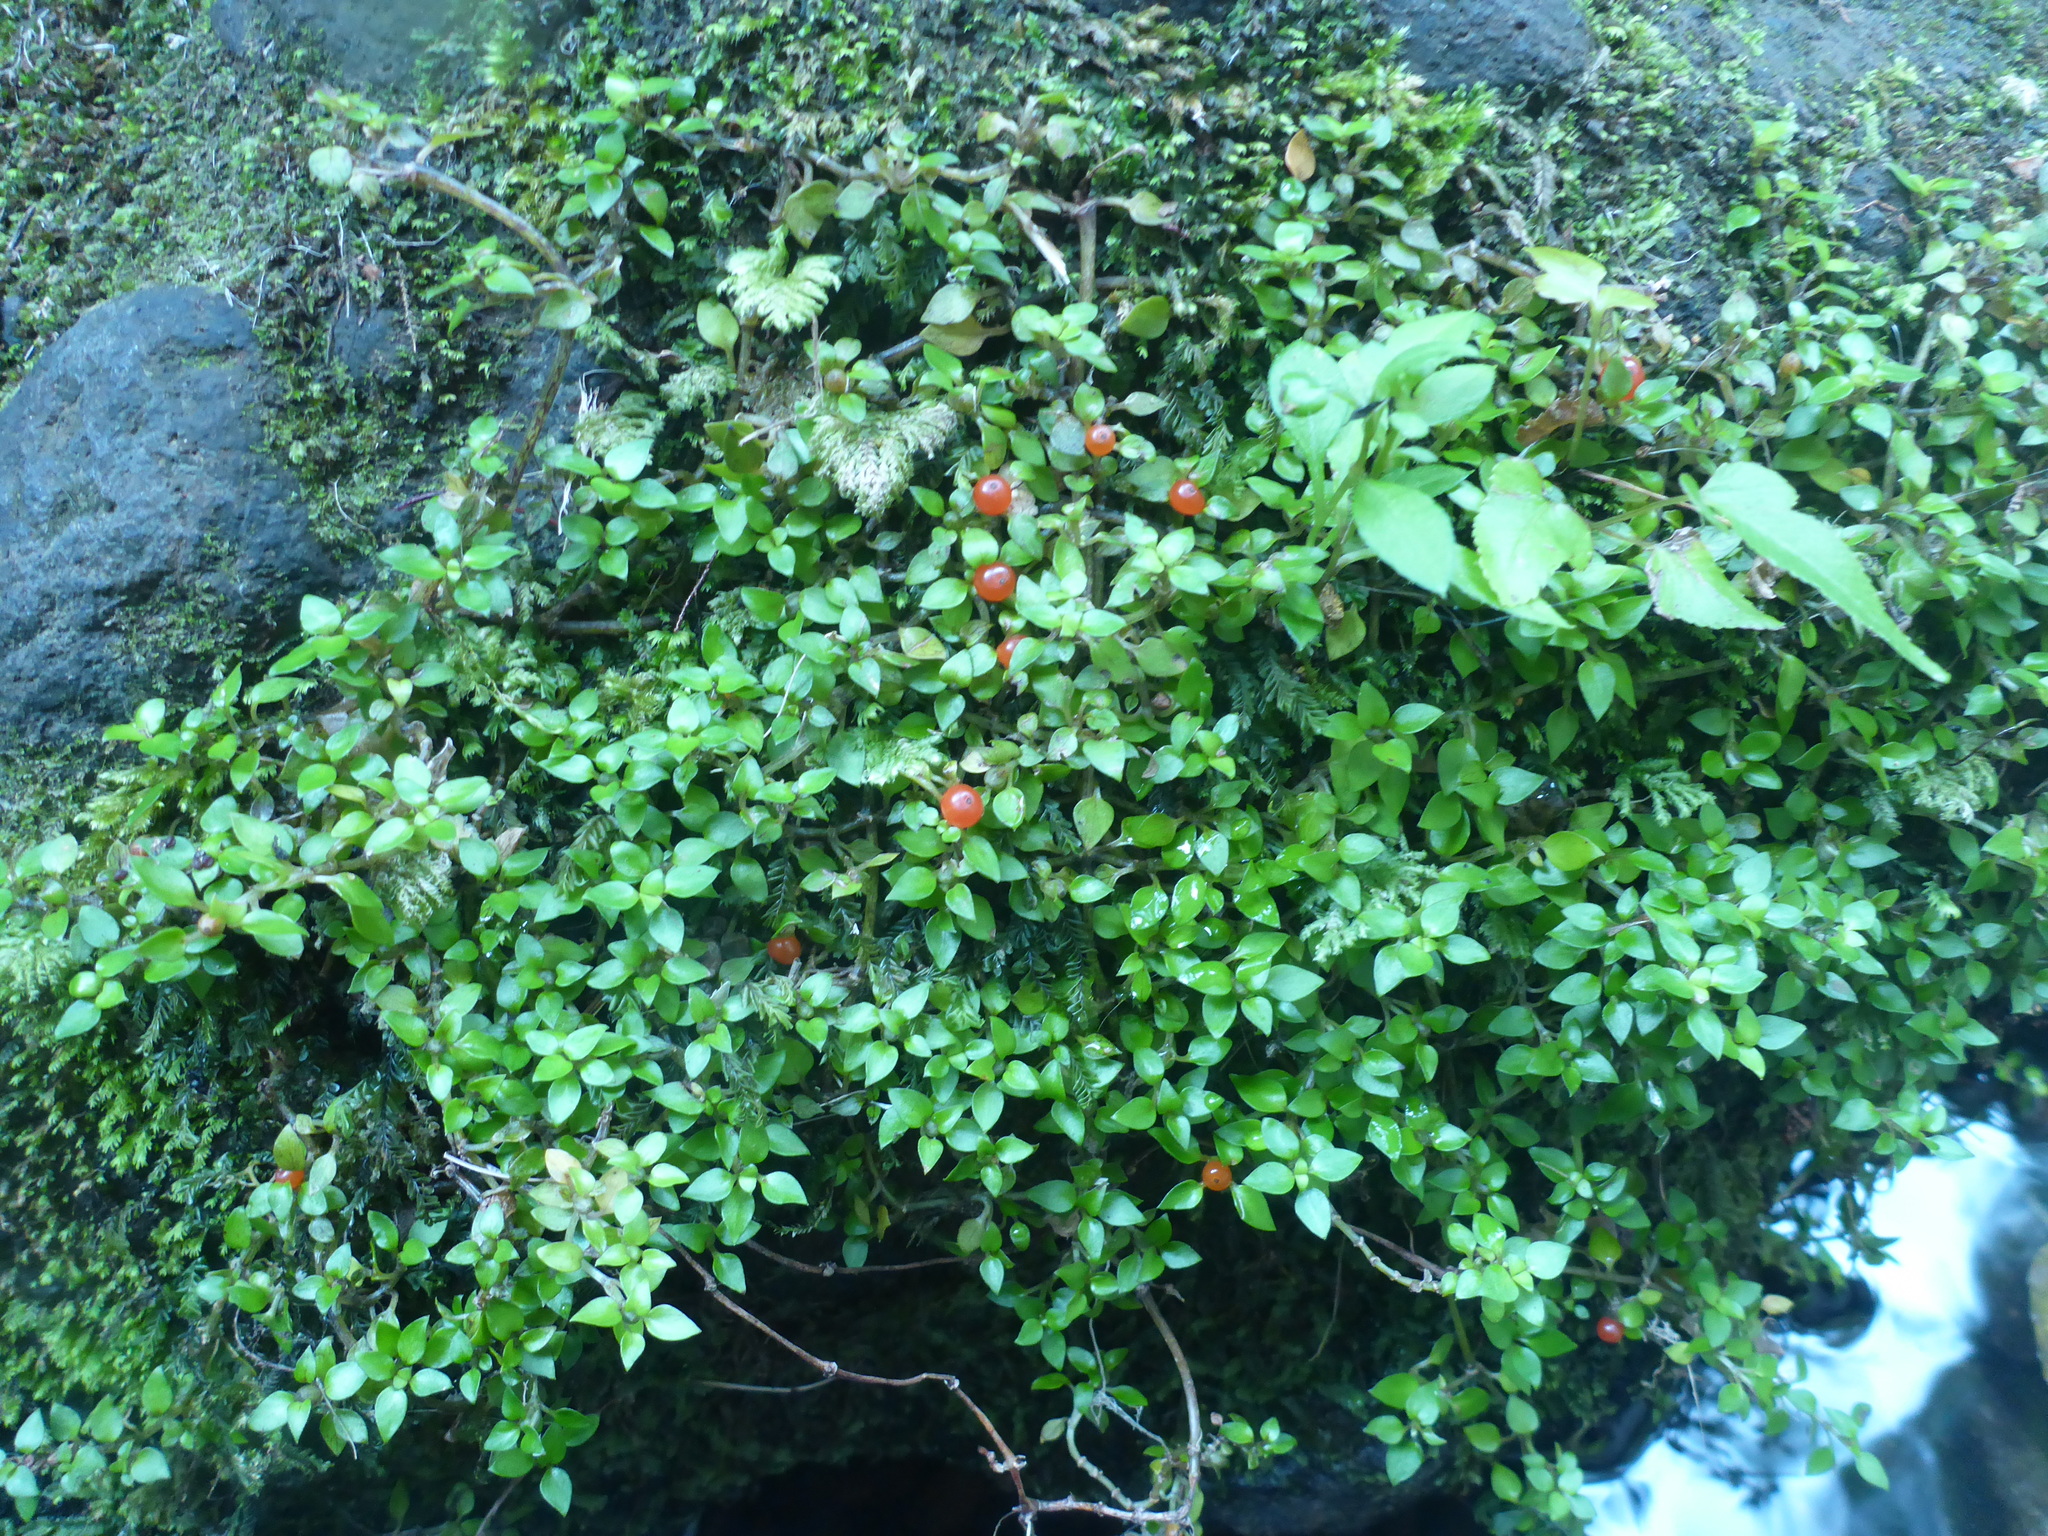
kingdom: Plantae
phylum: Tracheophyta
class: Magnoliopsida
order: Gentianales
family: Rubiaceae
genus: Nertera
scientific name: Nertera granadensis
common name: Beadplant
